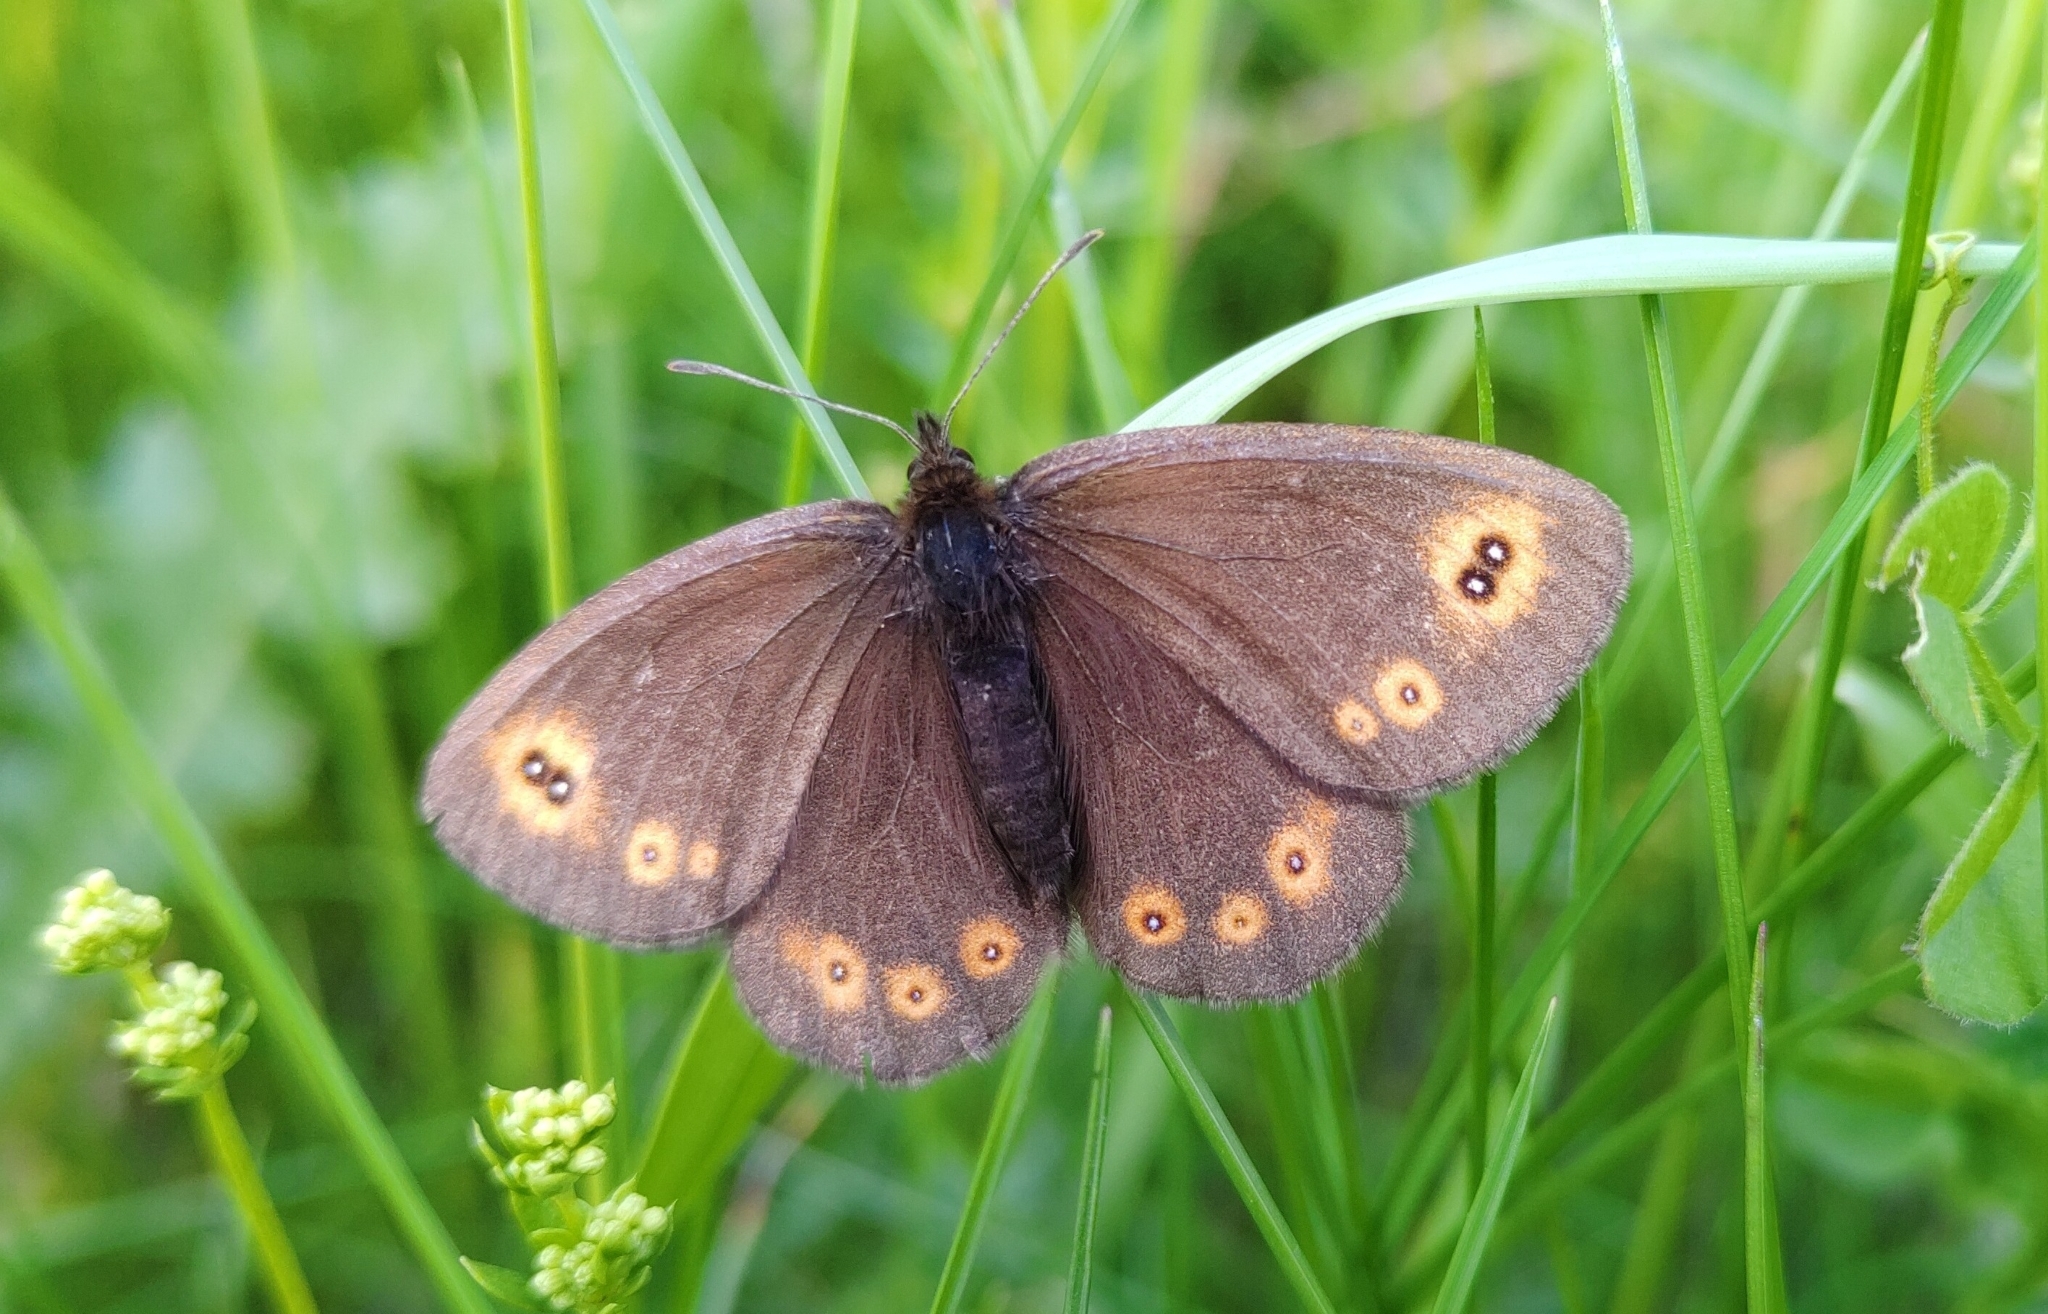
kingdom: Animalia
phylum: Arthropoda
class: Insecta
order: Lepidoptera
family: Nymphalidae
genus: Erebia
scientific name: Erebia medusa
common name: Woodland ringlet
